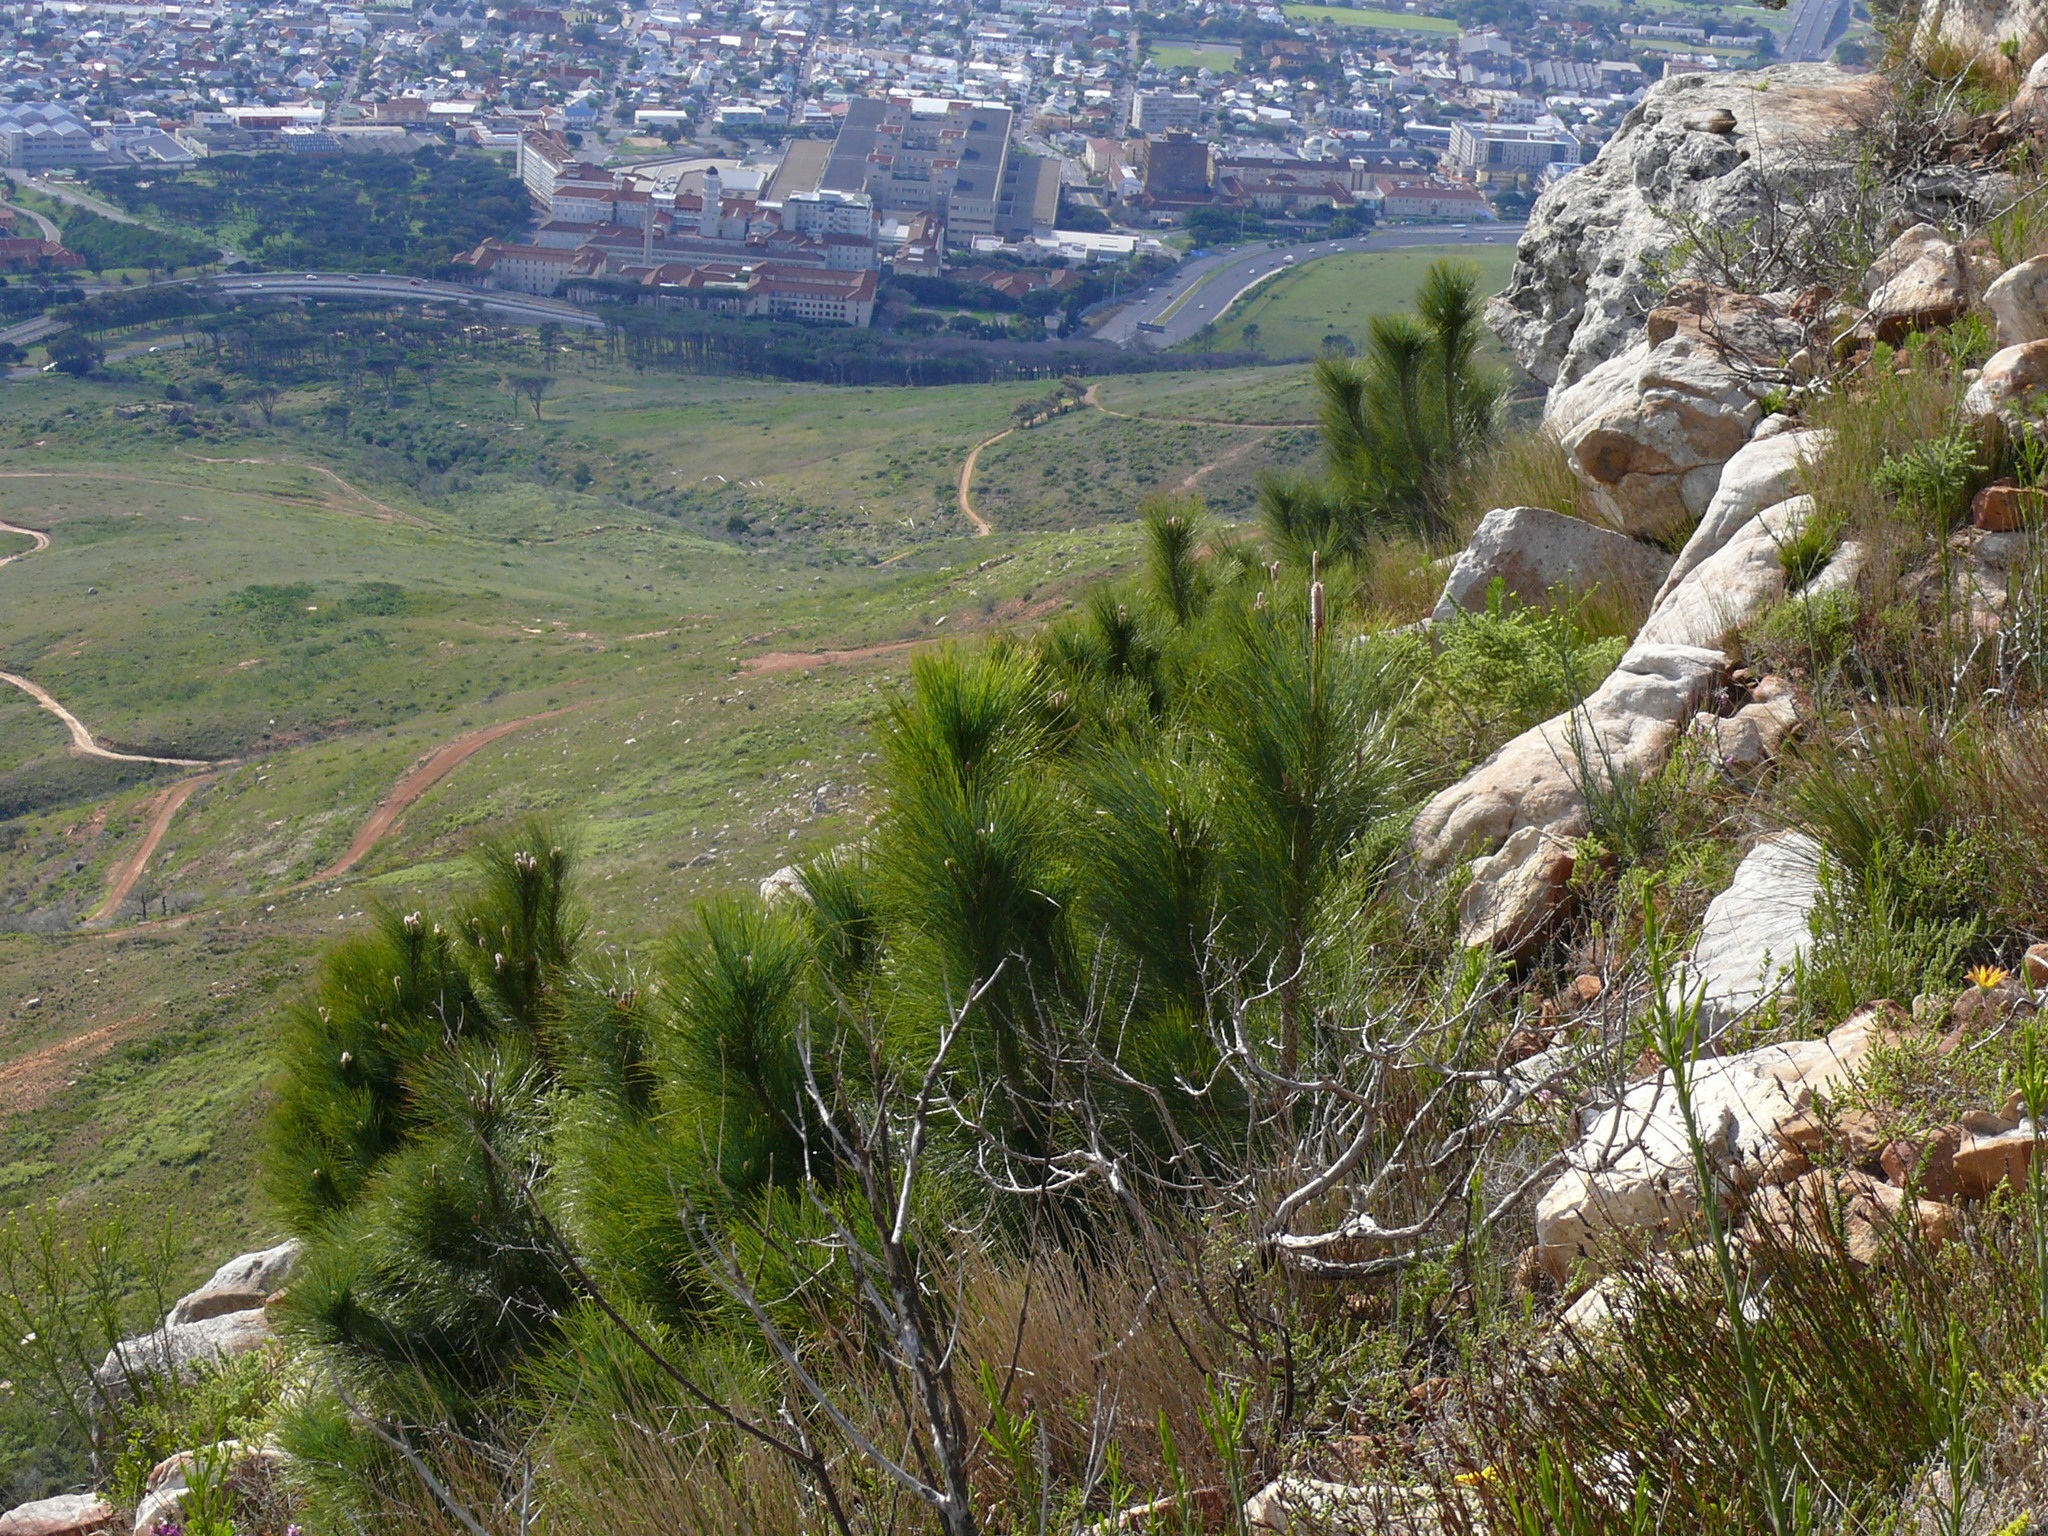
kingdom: Plantae
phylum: Tracheophyta
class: Pinopsida
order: Pinales
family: Pinaceae
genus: Pinus
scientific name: Pinus canariensis
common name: Canary islands pine
